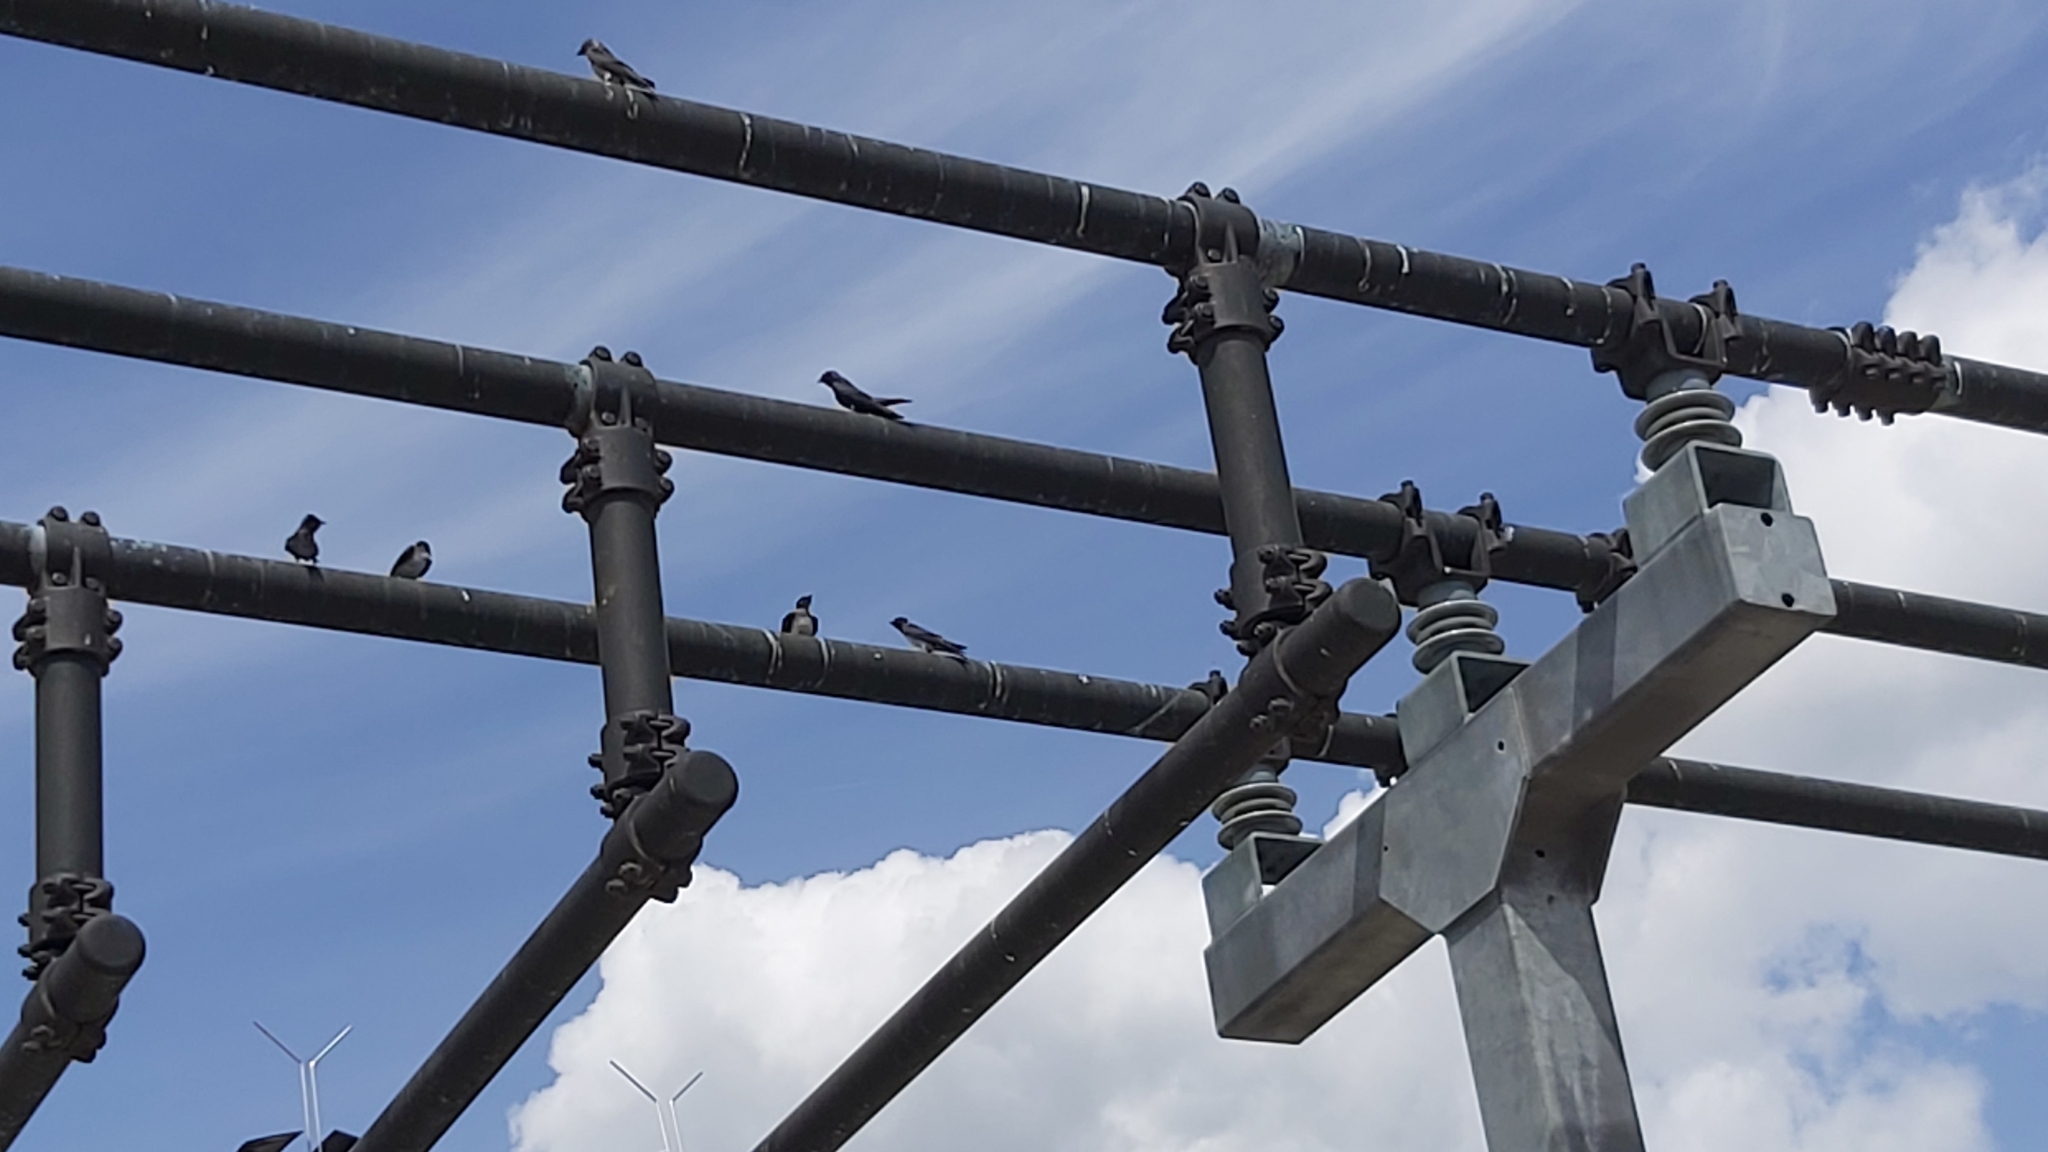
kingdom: Animalia
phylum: Chordata
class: Aves
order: Passeriformes
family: Hirundinidae
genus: Progne
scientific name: Progne subis
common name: Purple martin
